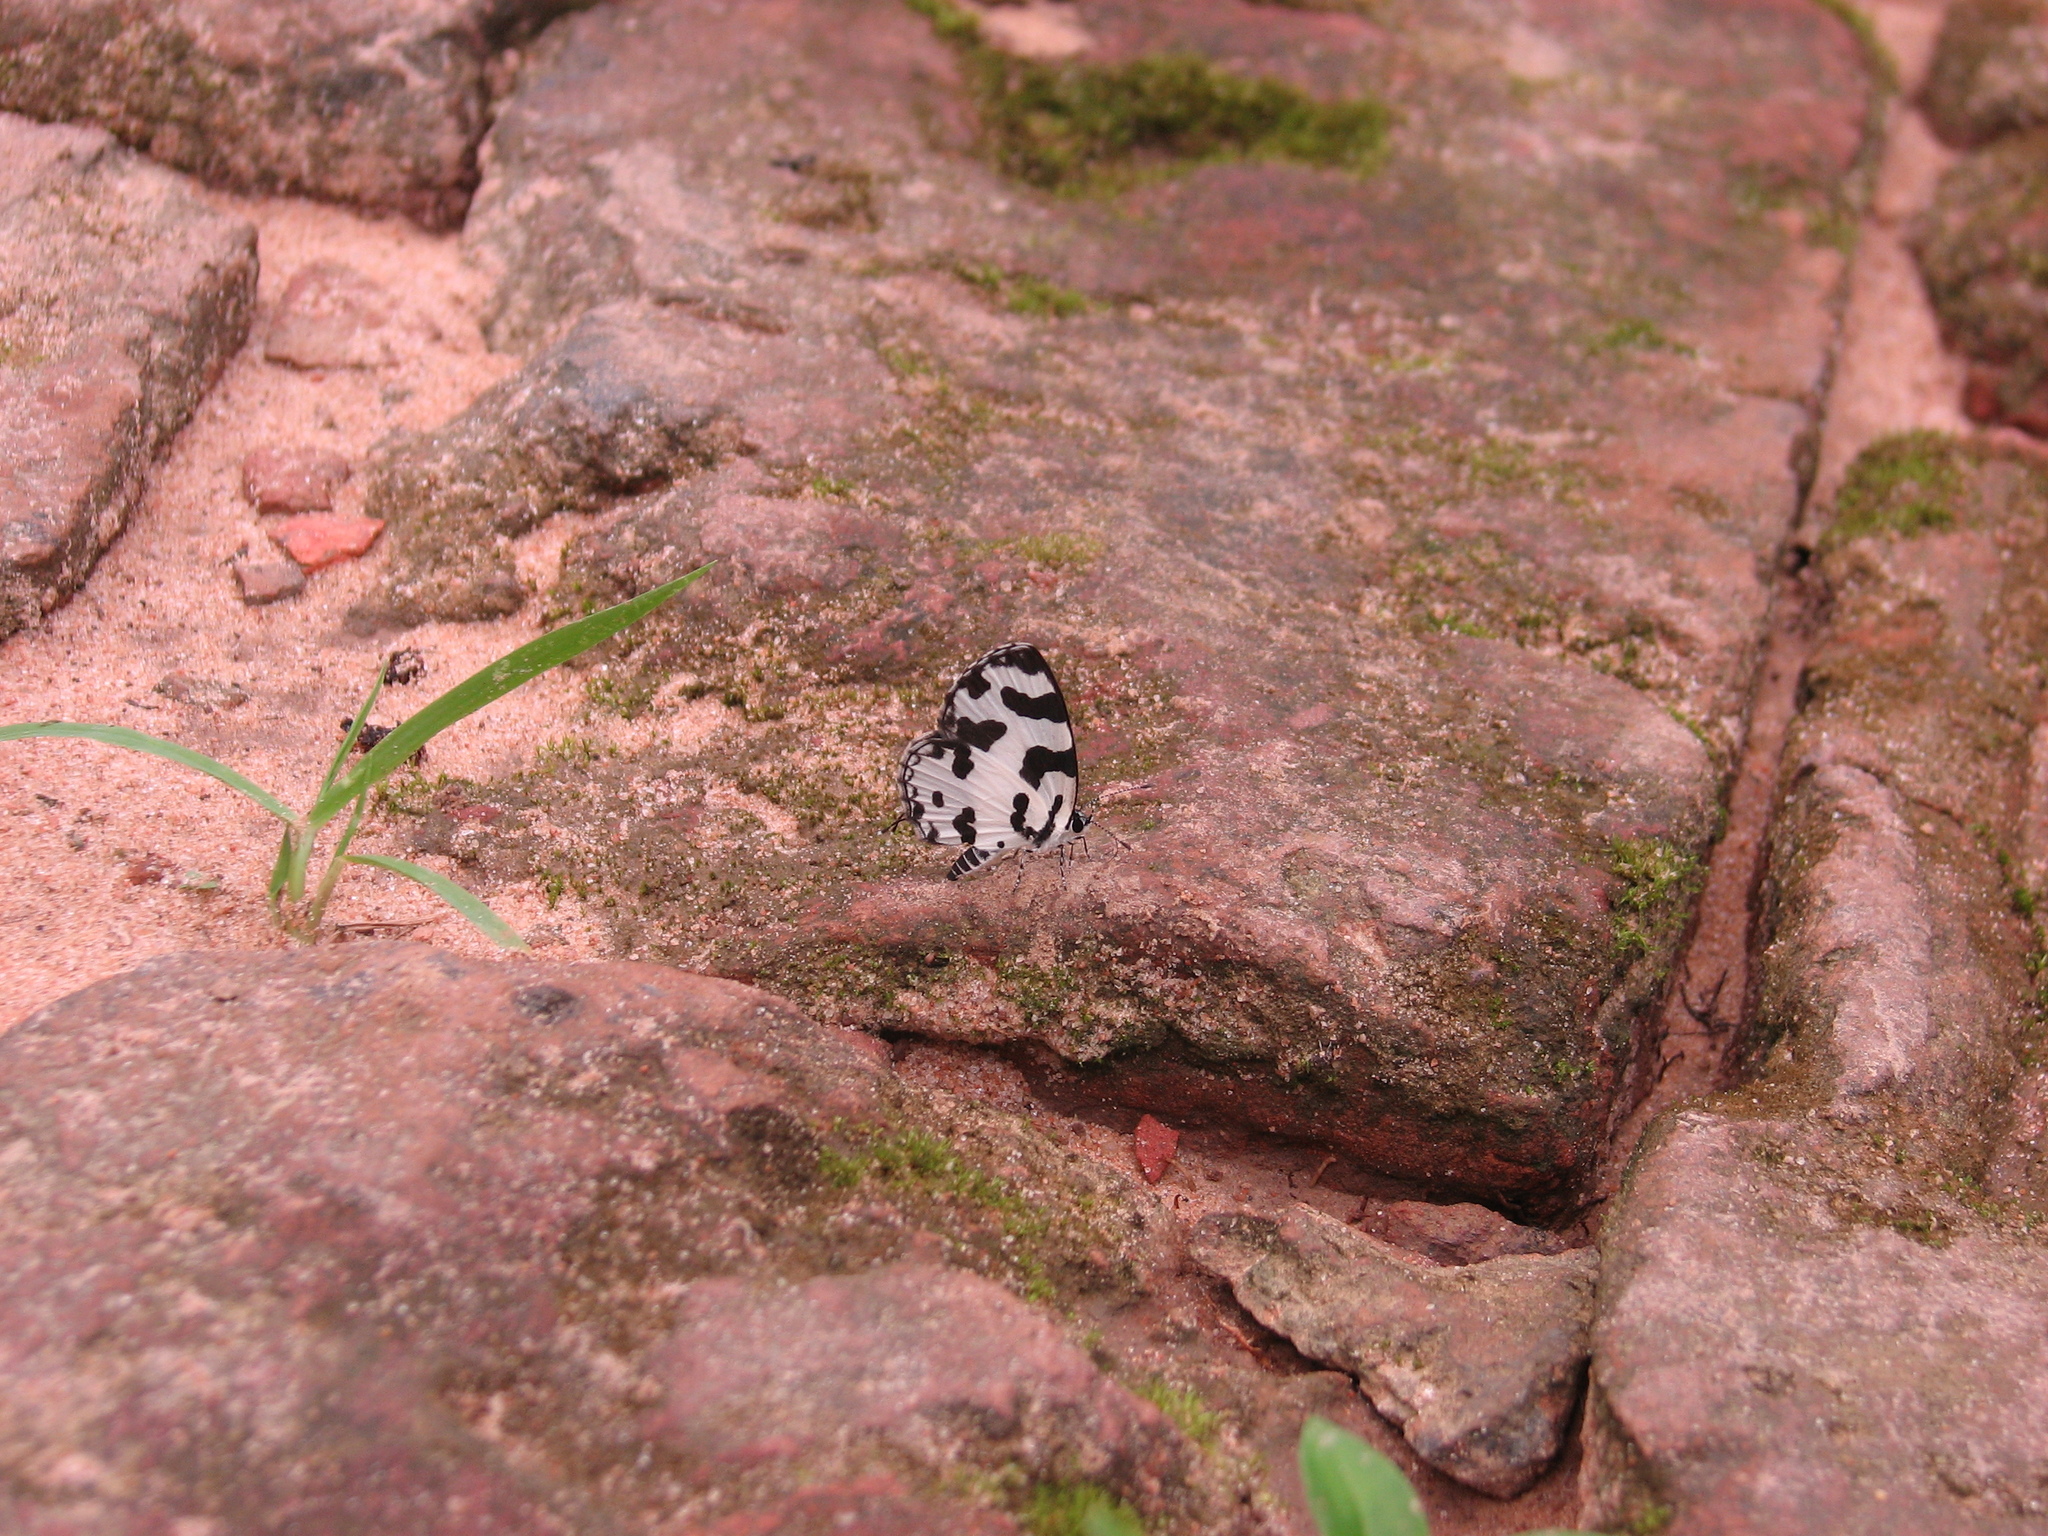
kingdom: Animalia
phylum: Arthropoda
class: Insecta
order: Lepidoptera
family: Lycaenidae
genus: Caleta
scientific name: Caleta decidia
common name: Angled pierrot
